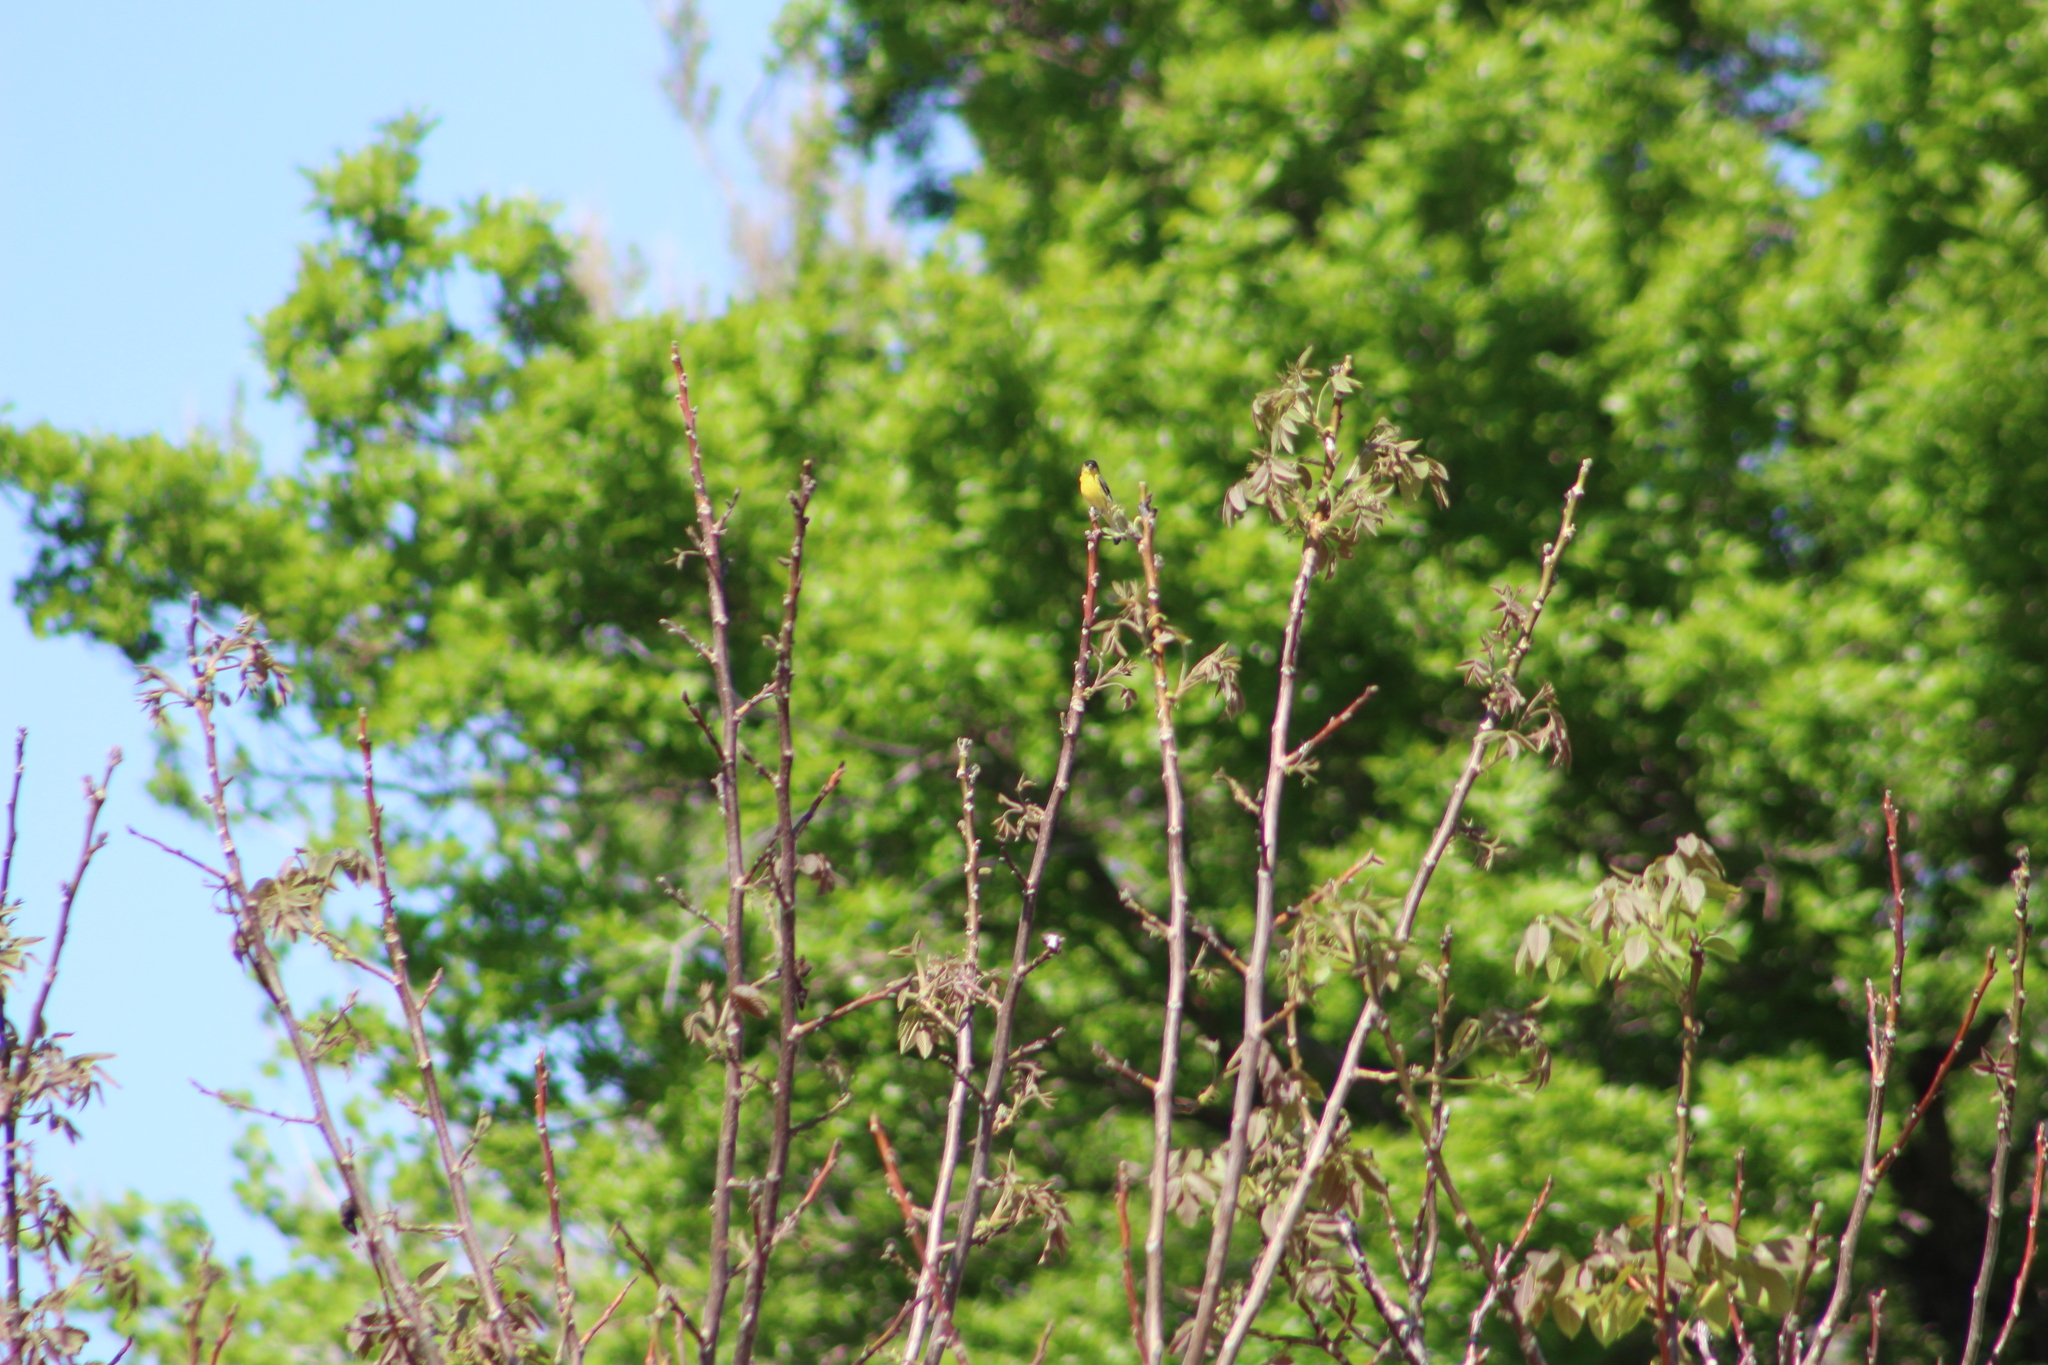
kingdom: Animalia
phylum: Chordata
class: Aves
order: Passeriformes
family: Fringillidae
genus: Spinus
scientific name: Spinus psaltria
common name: Lesser goldfinch
